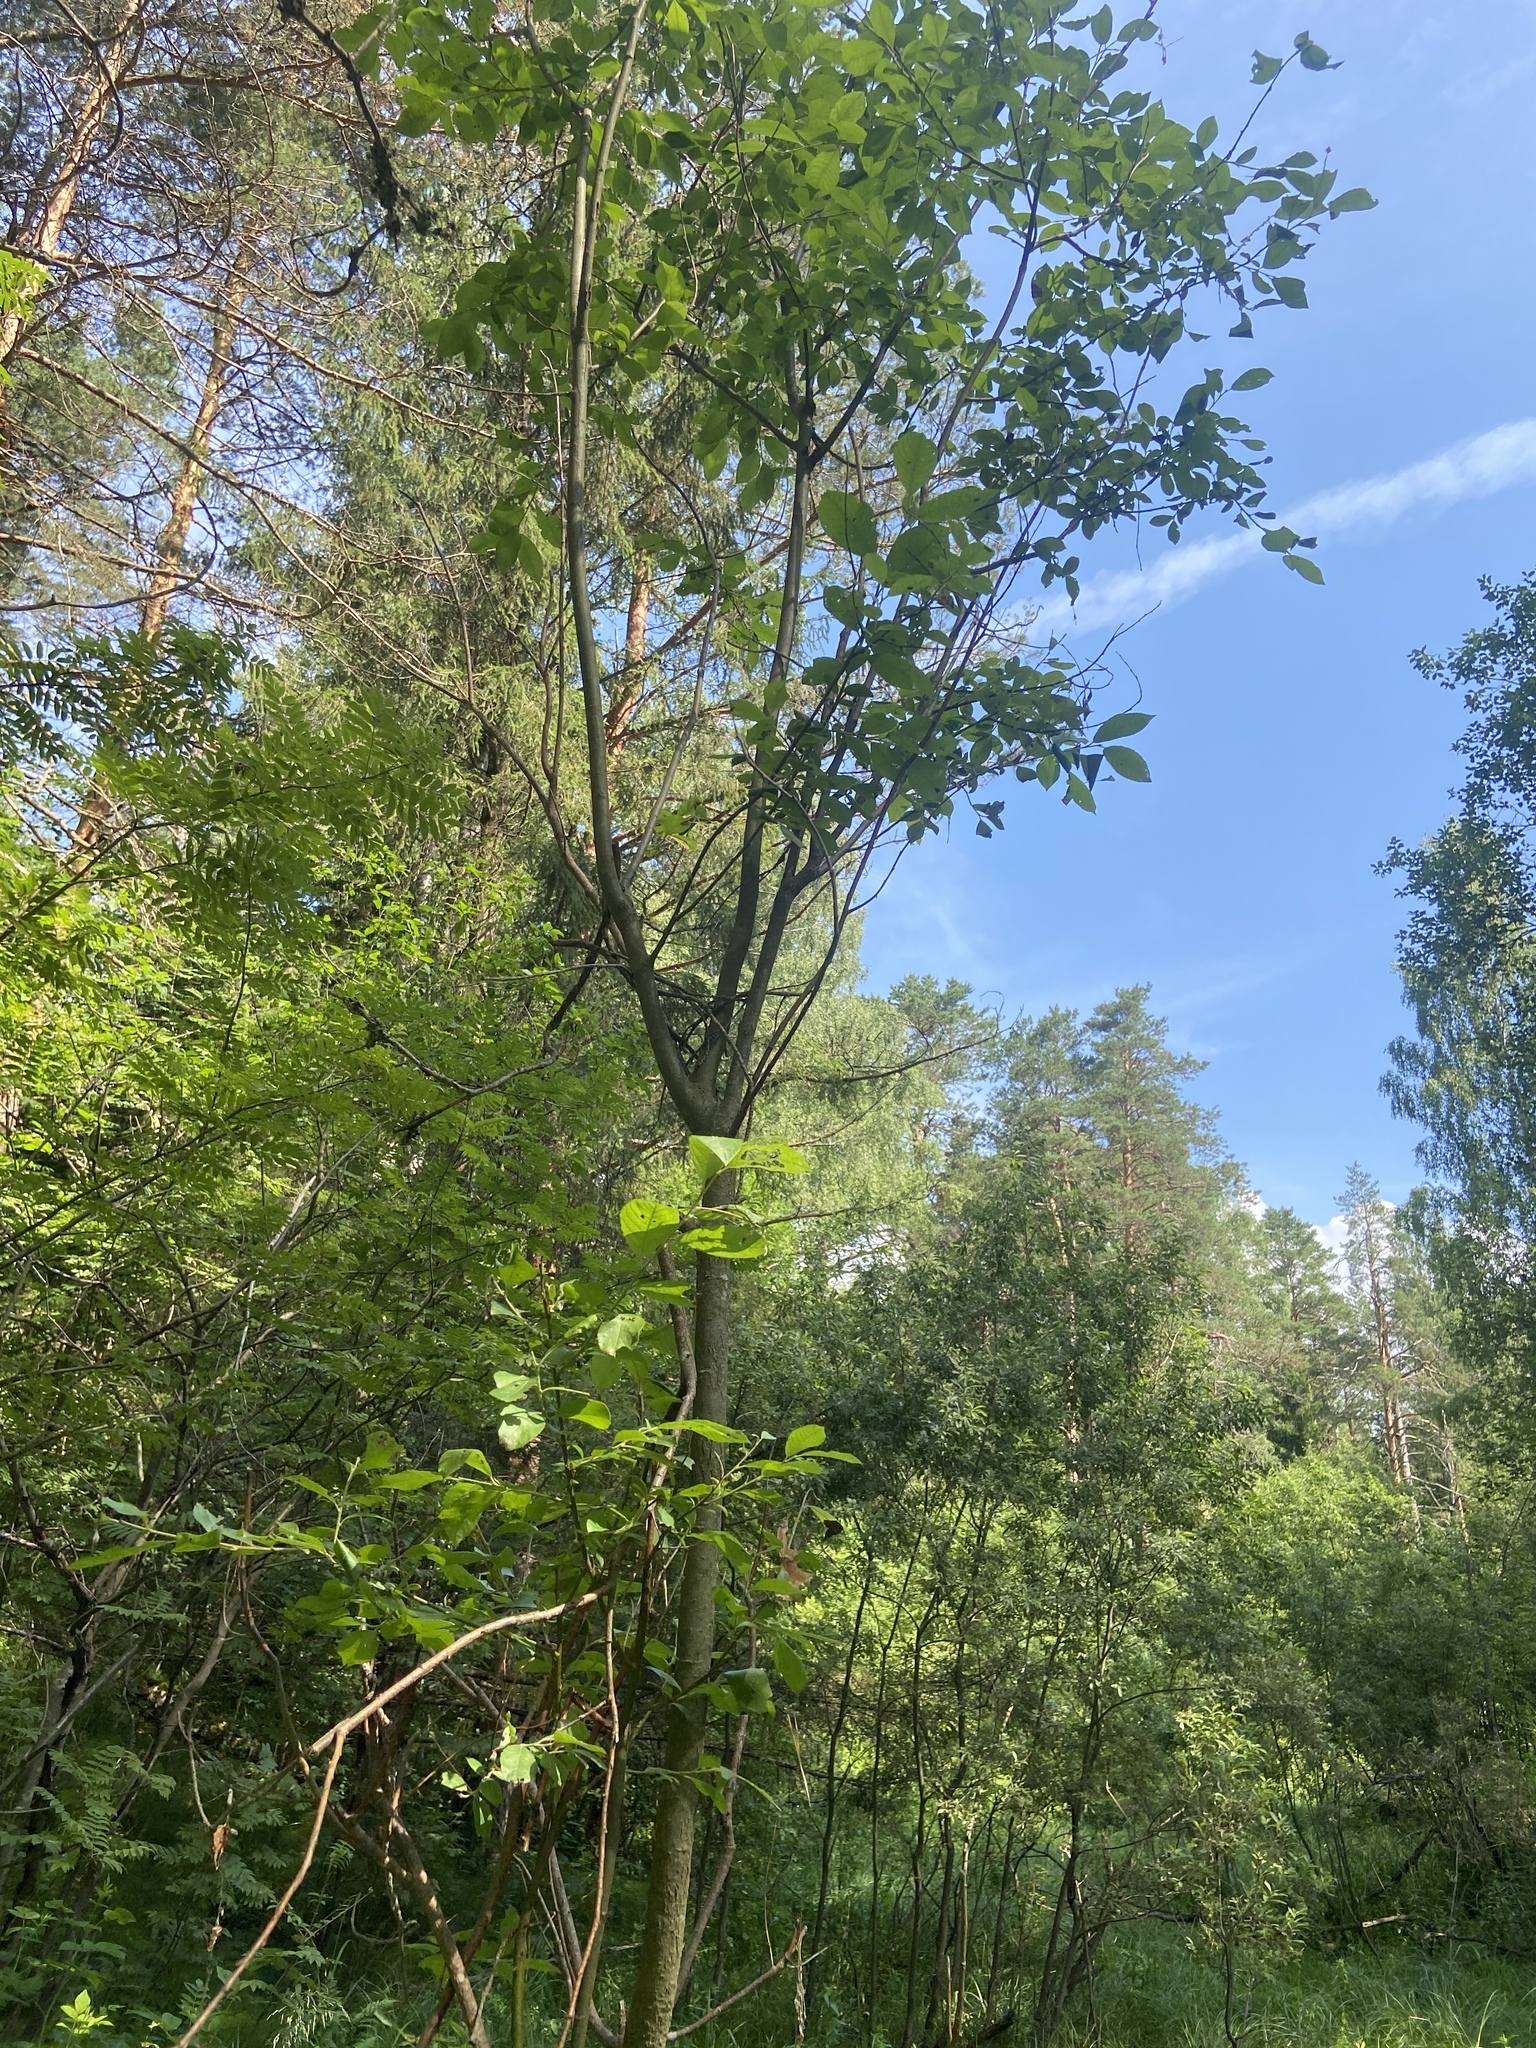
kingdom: Plantae
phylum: Tracheophyta
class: Pinopsida
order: Pinales
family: Pinaceae
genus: Pinus
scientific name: Pinus sylvestris
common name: Scots pine
